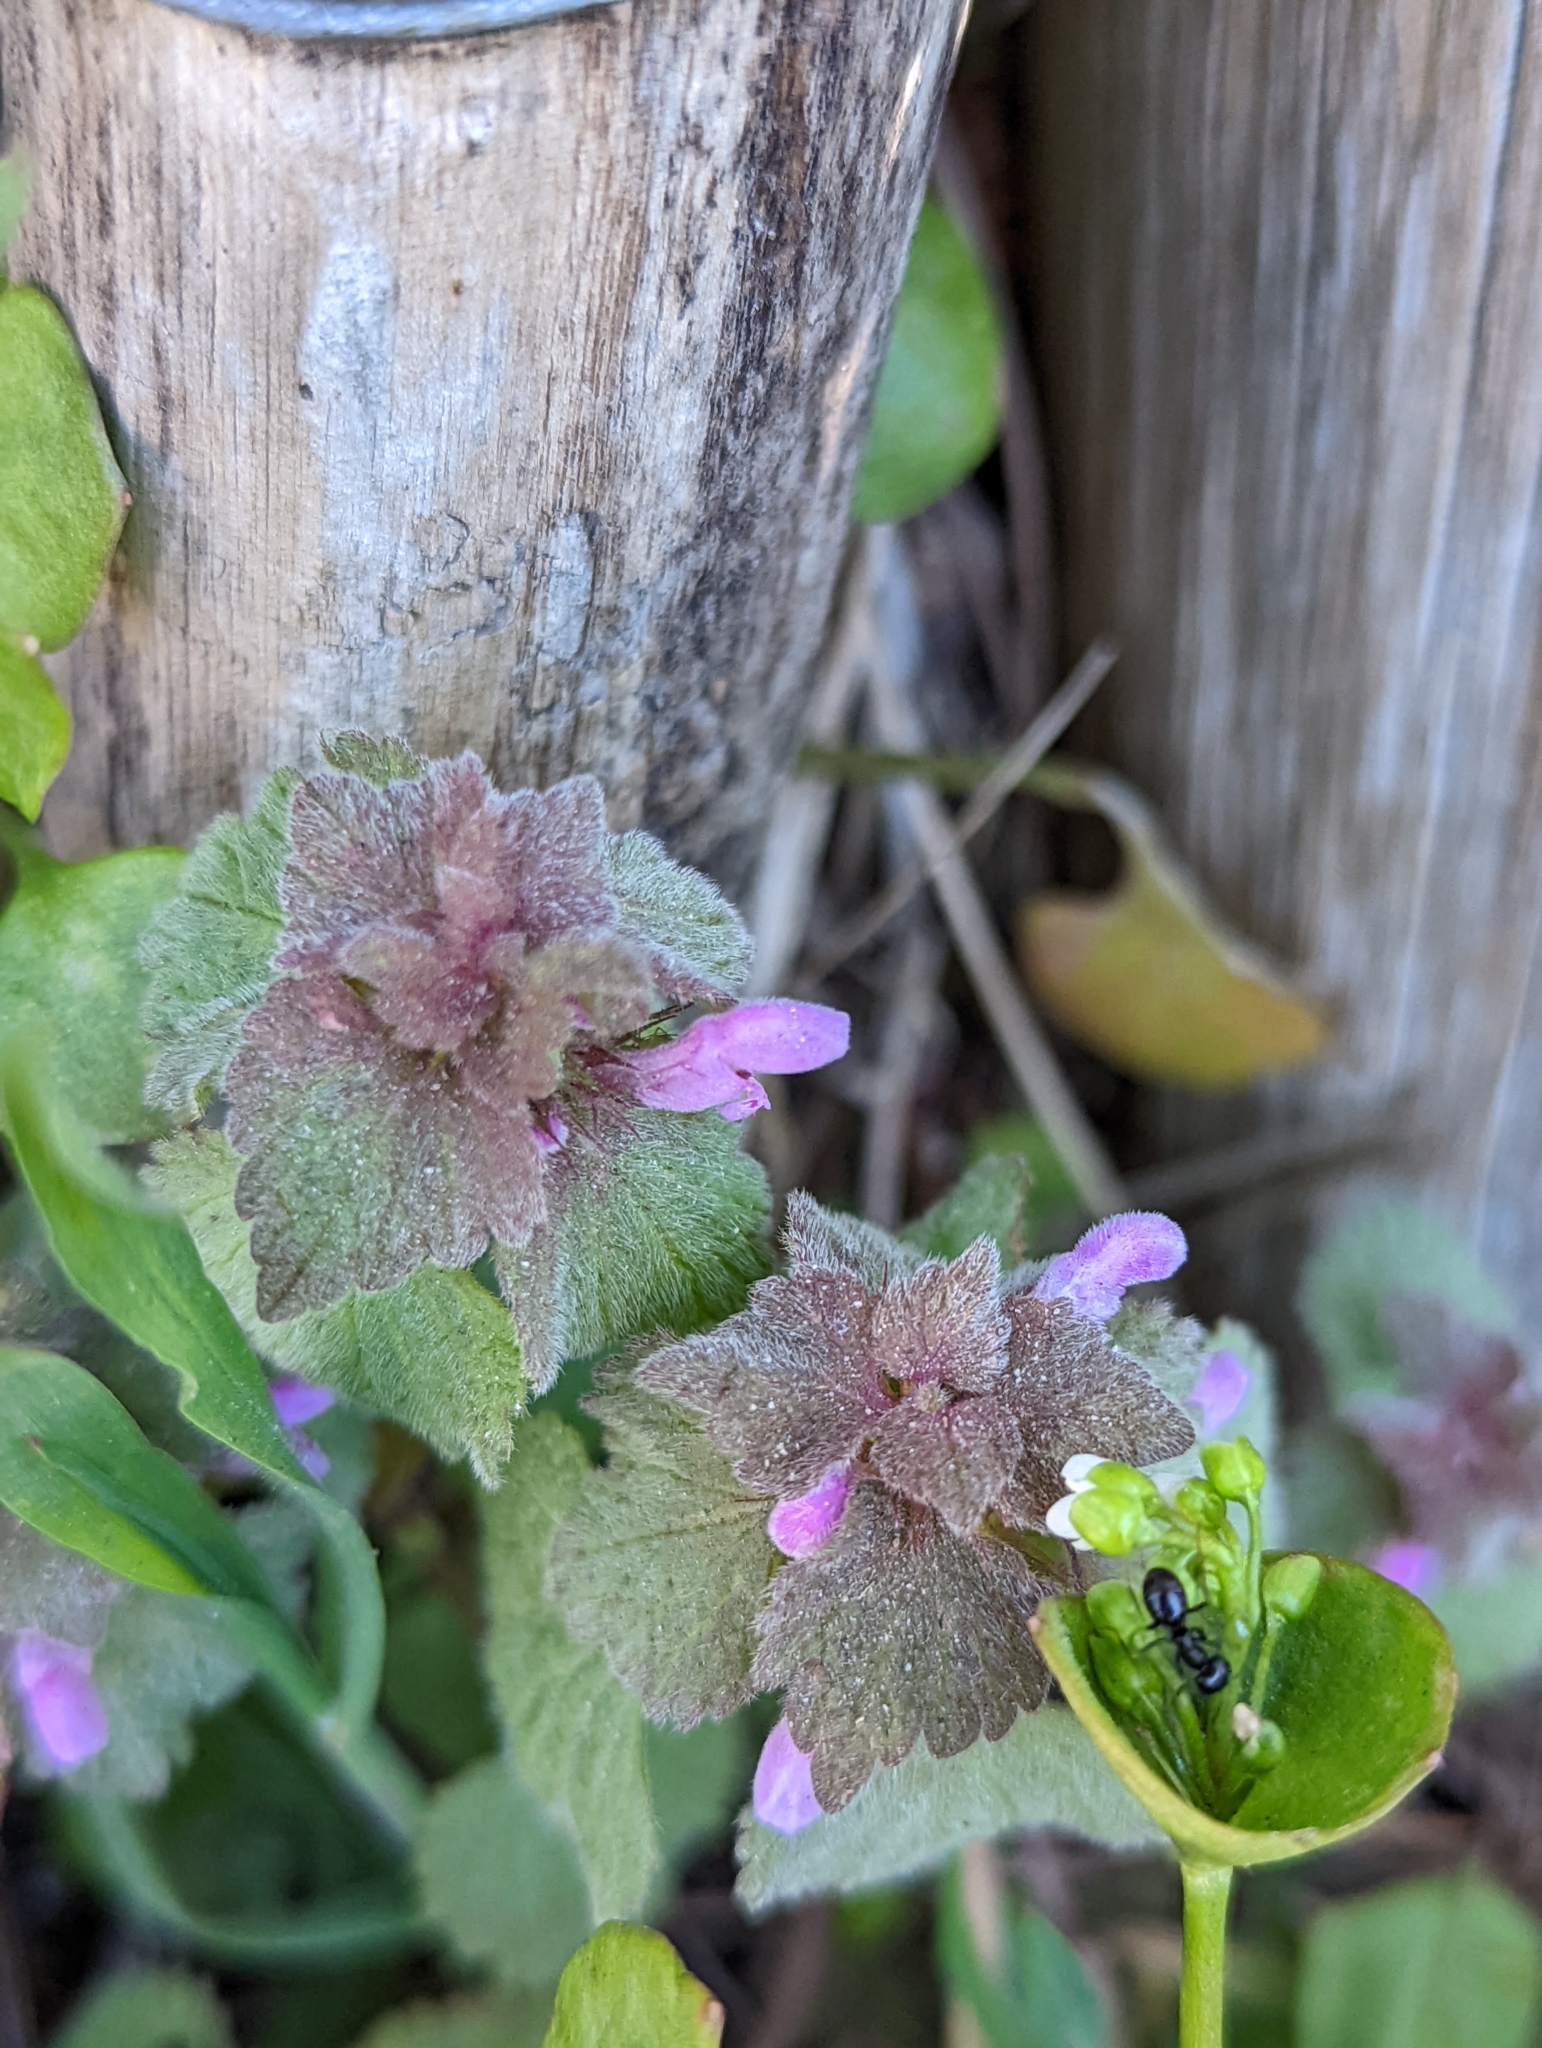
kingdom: Plantae
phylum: Tracheophyta
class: Magnoliopsida
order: Lamiales
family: Lamiaceae
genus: Lamium
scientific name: Lamium purpureum
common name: Red dead-nettle
